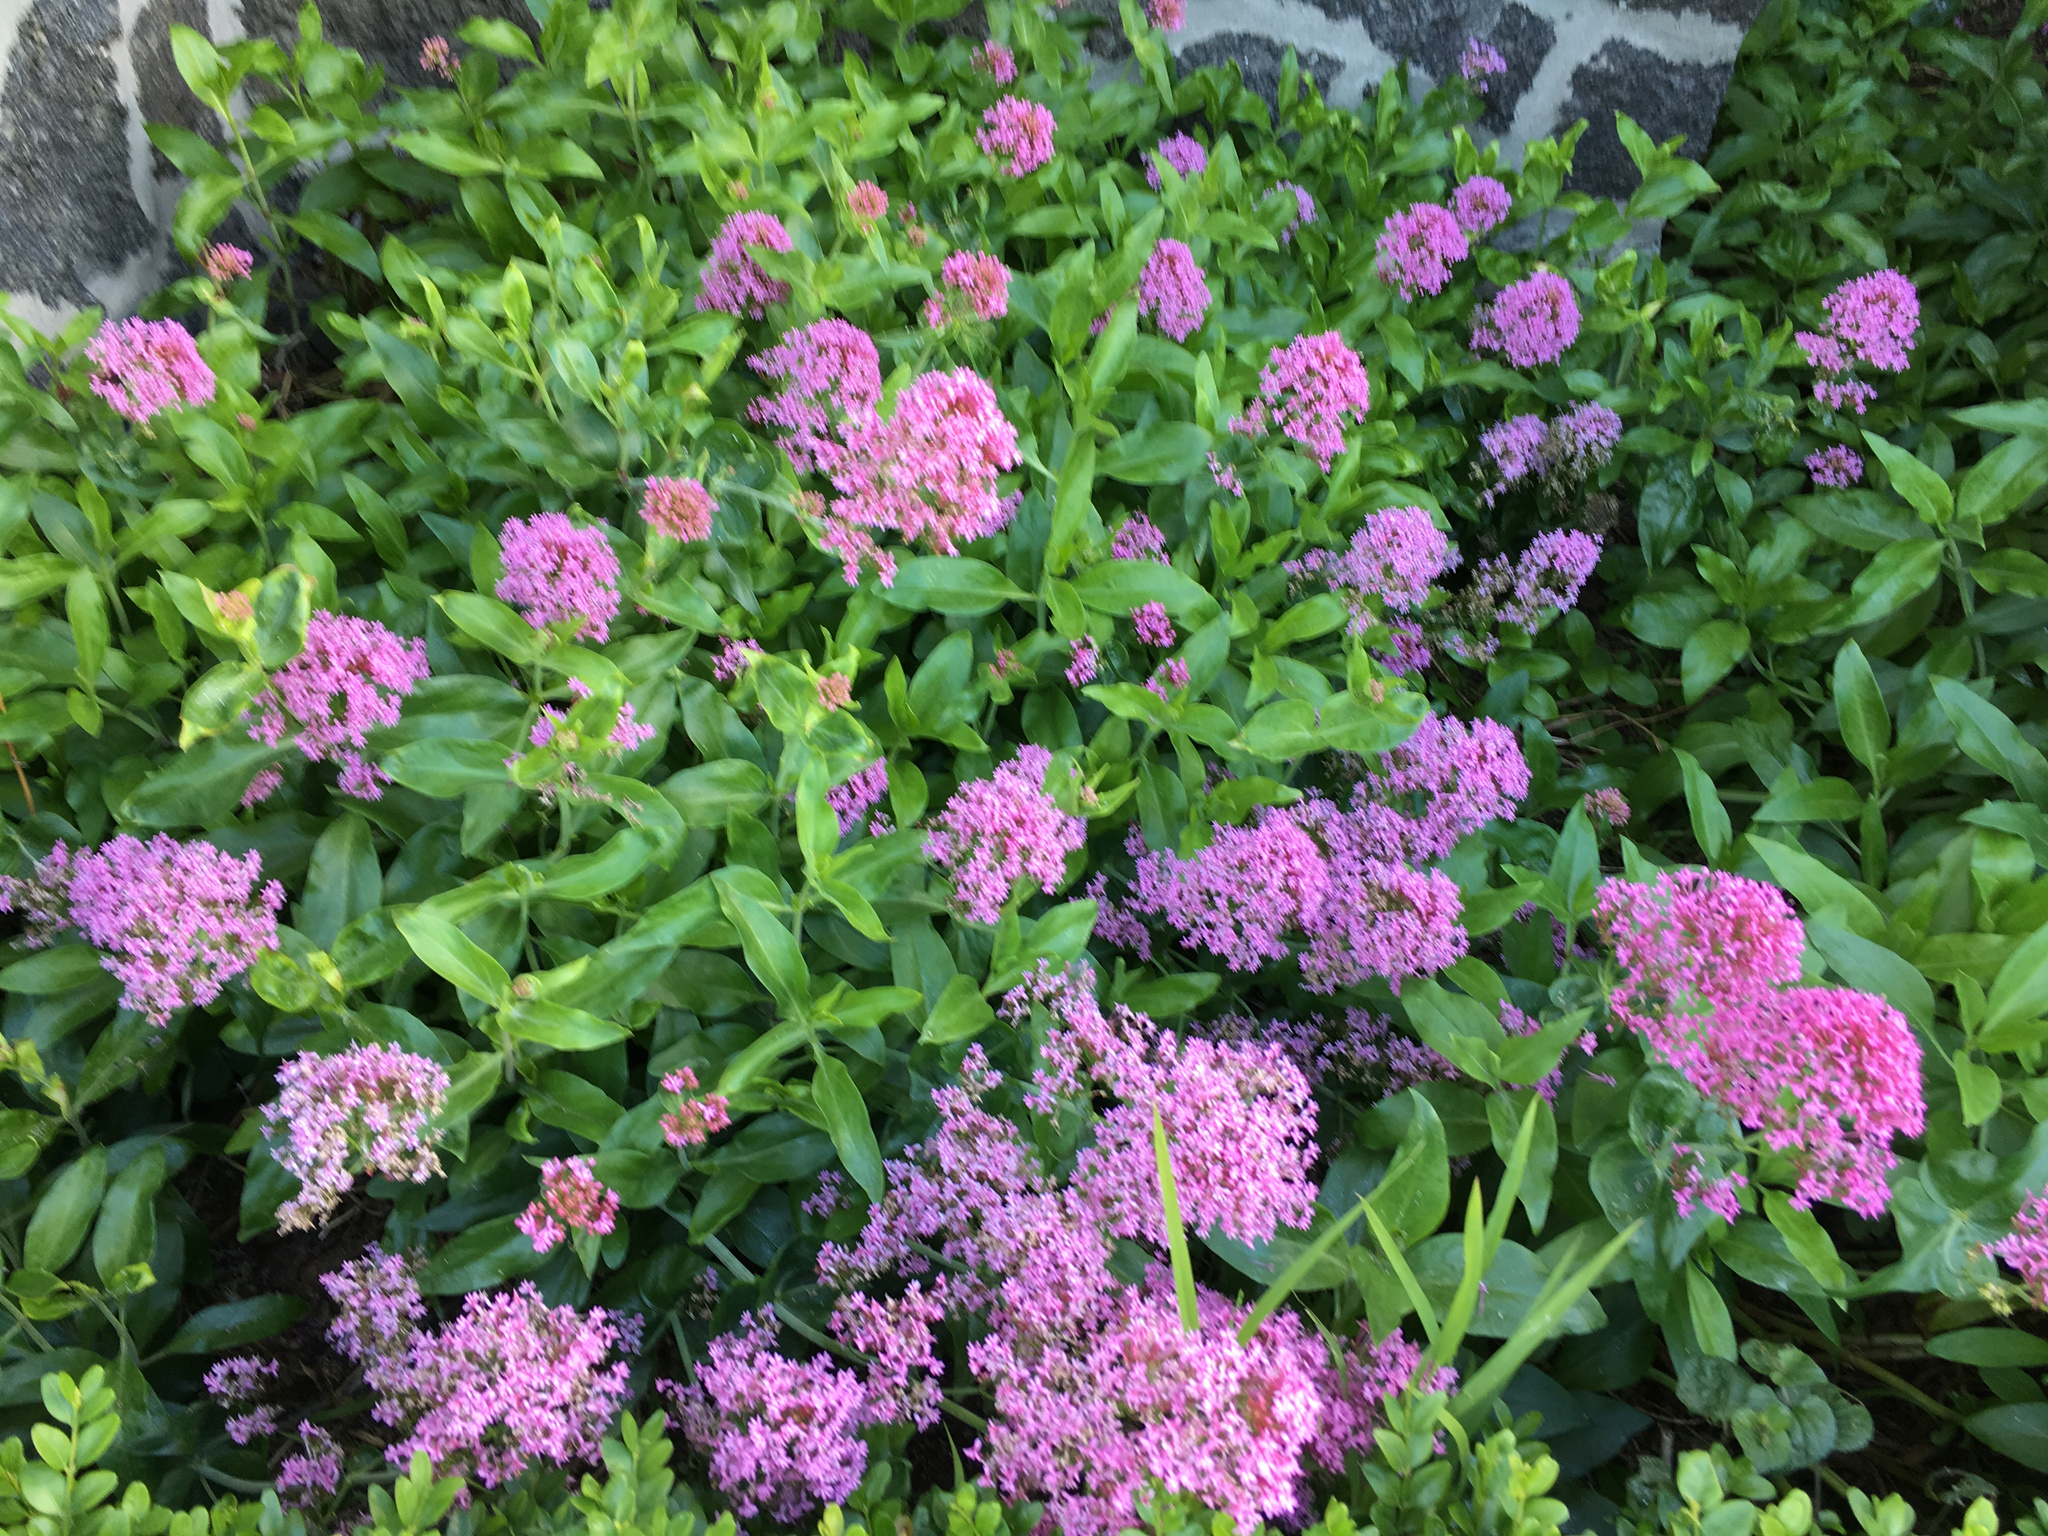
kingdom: Plantae
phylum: Tracheophyta
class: Magnoliopsida
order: Dipsacales
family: Caprifoliaceae
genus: Centranthus
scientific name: Centranthus ruber
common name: Red valerian
